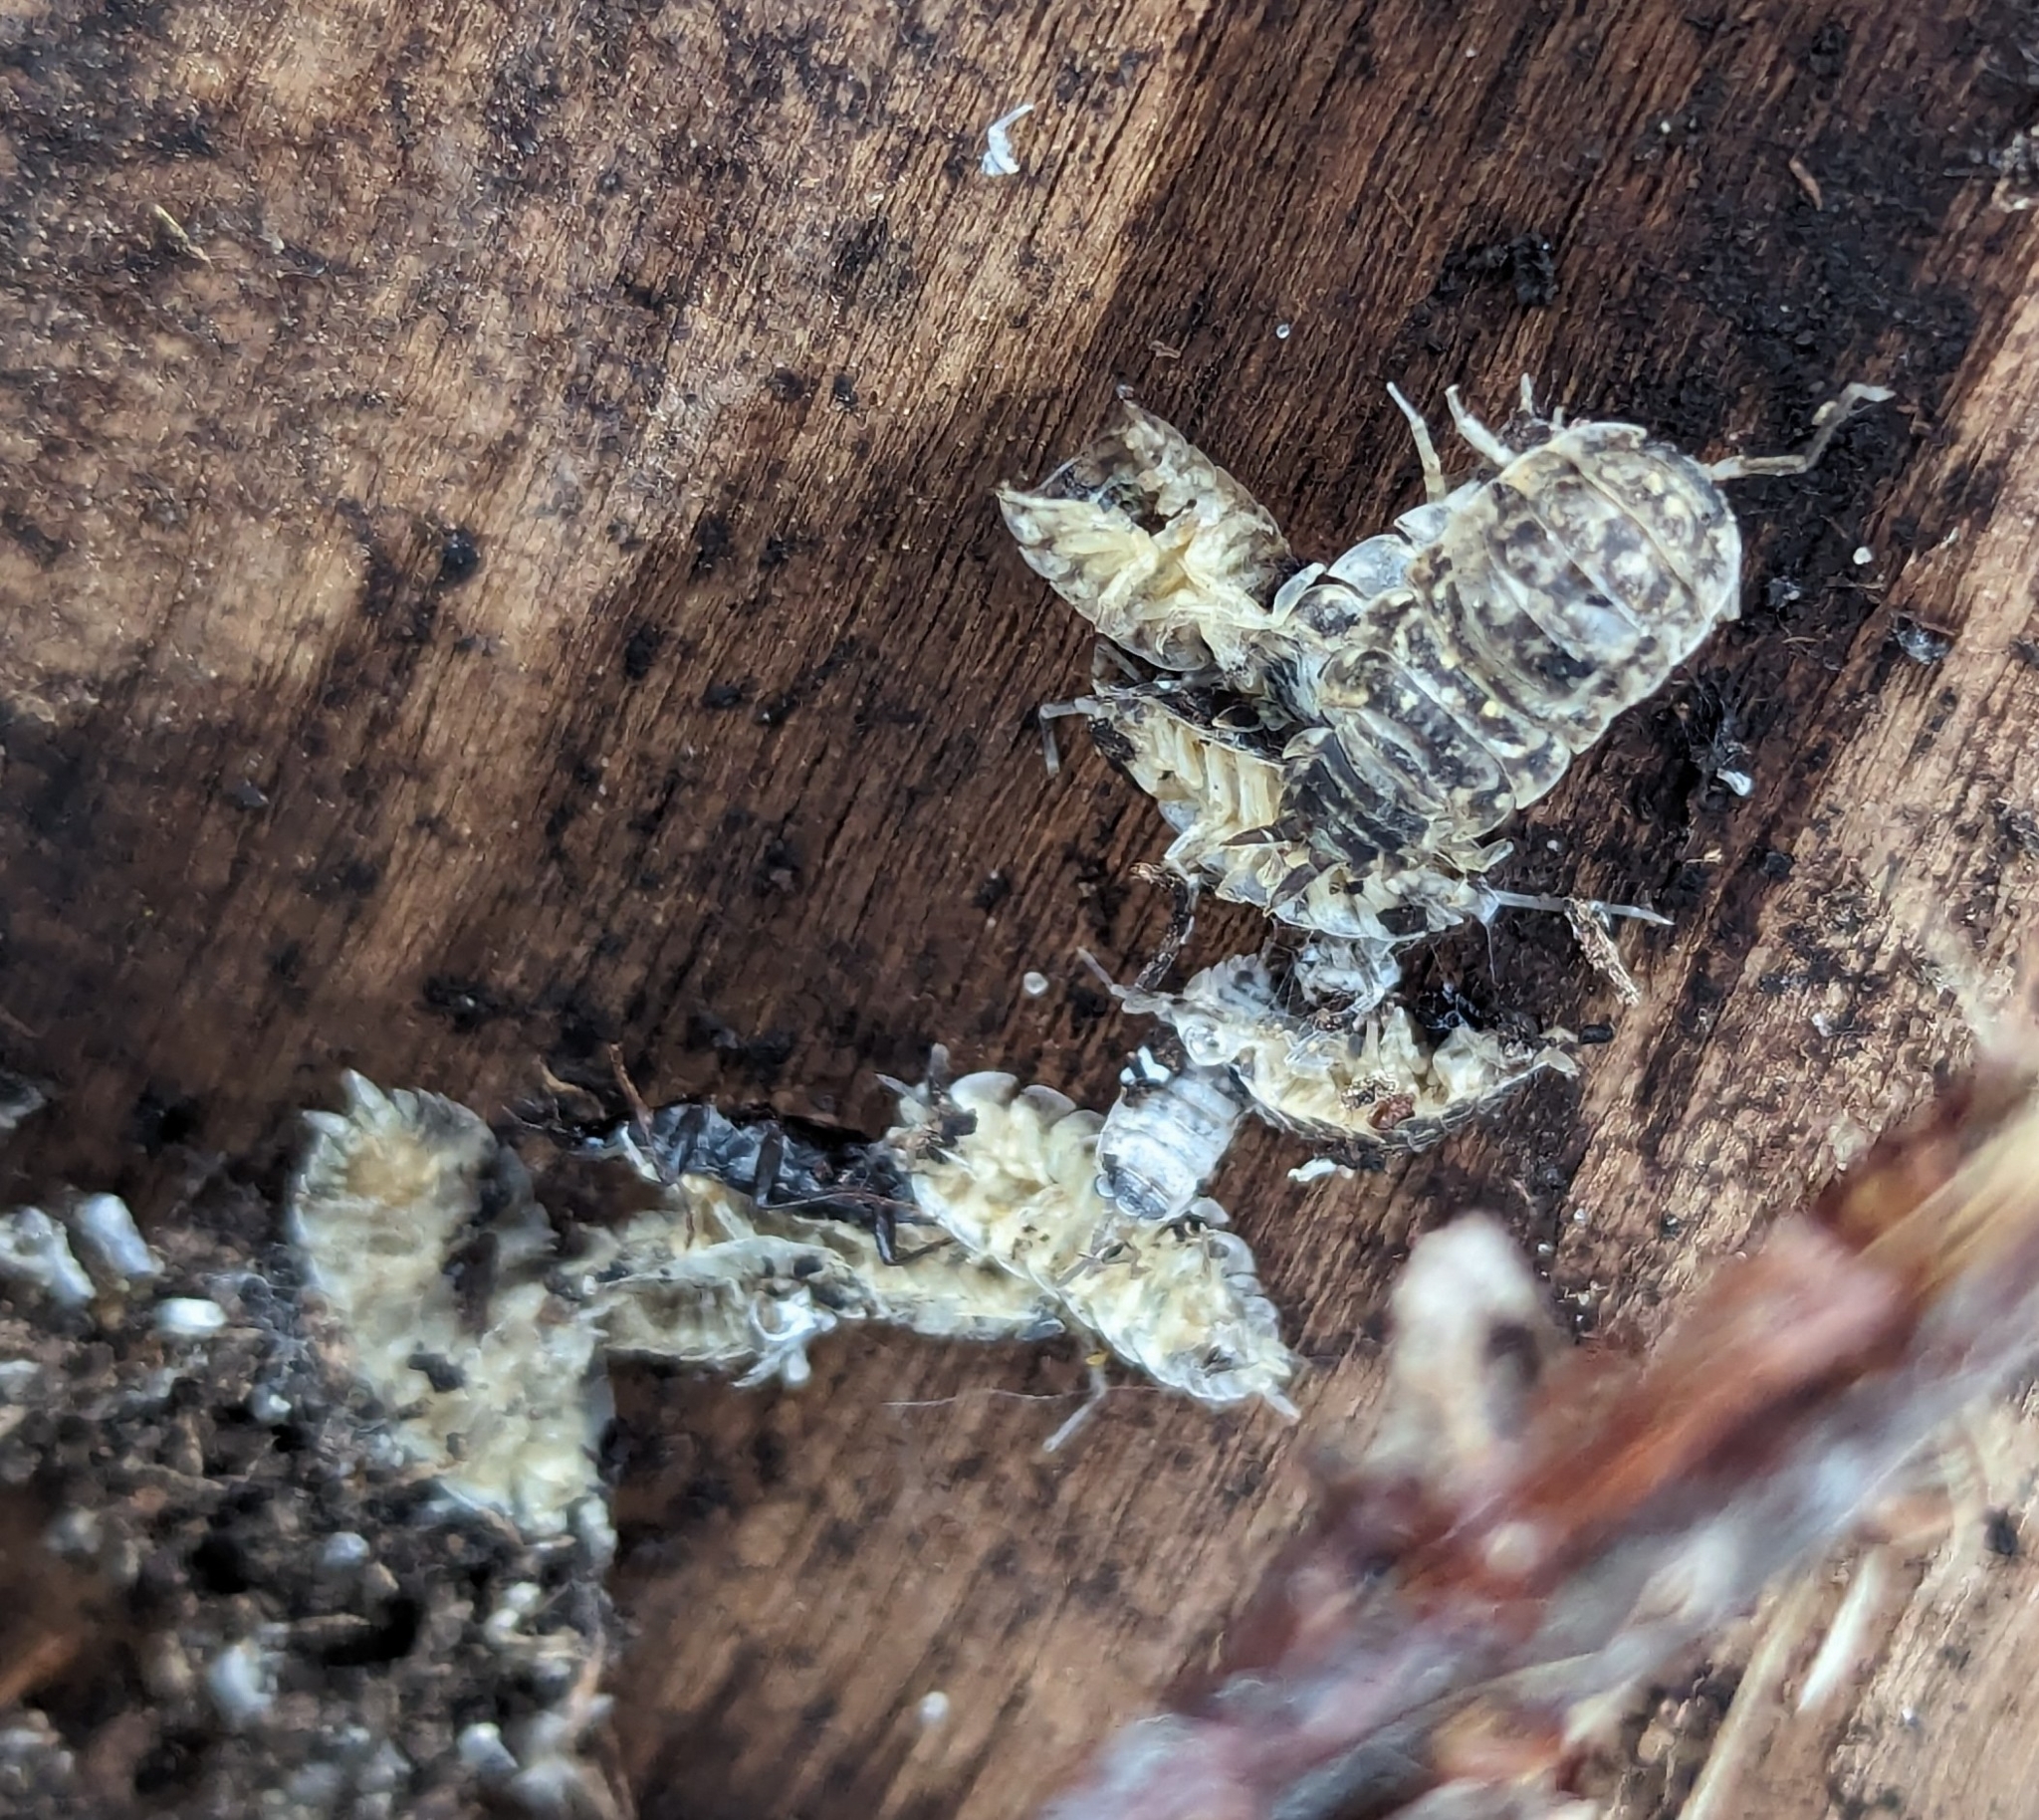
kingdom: Animalia
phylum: Arthropoda
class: Malacostraca
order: Isopoda
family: Porcellionidae
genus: Porcellio
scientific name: Porcellio spinicornis
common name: Painted woodlouse
